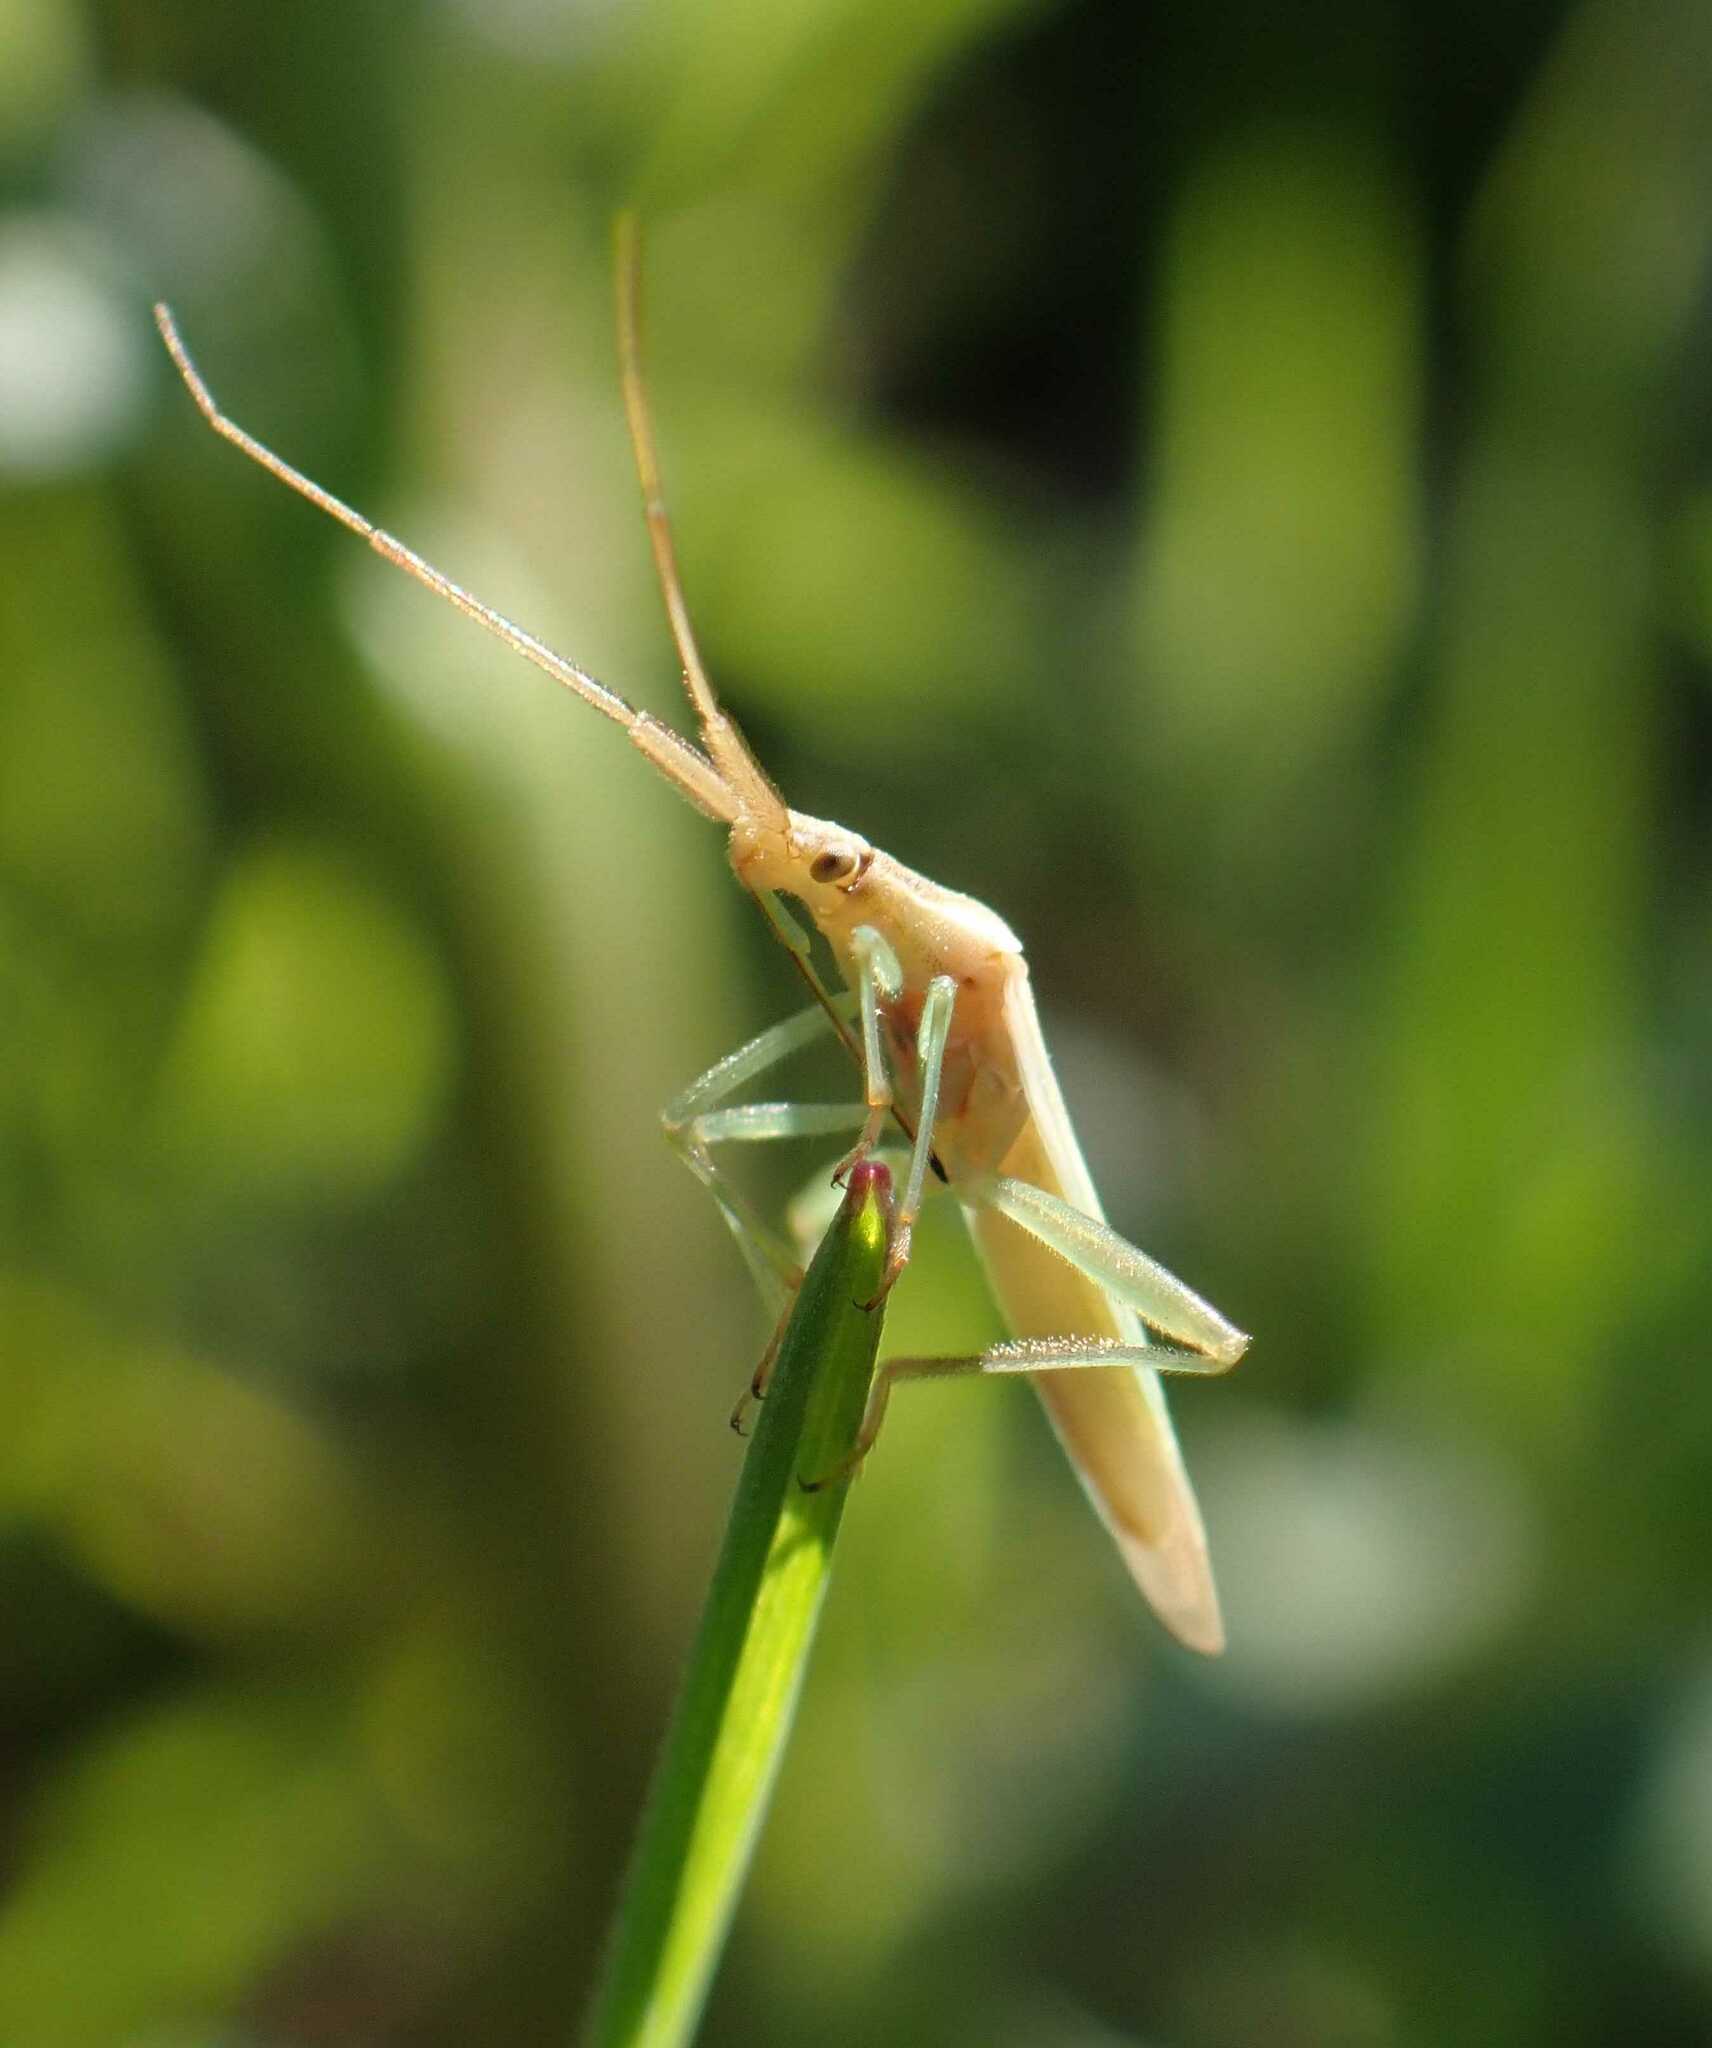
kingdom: Animalia
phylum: Arthropoda
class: Insecta
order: Hemiptera
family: Miridae
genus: Stenodema
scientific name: Stenodema laevigata
